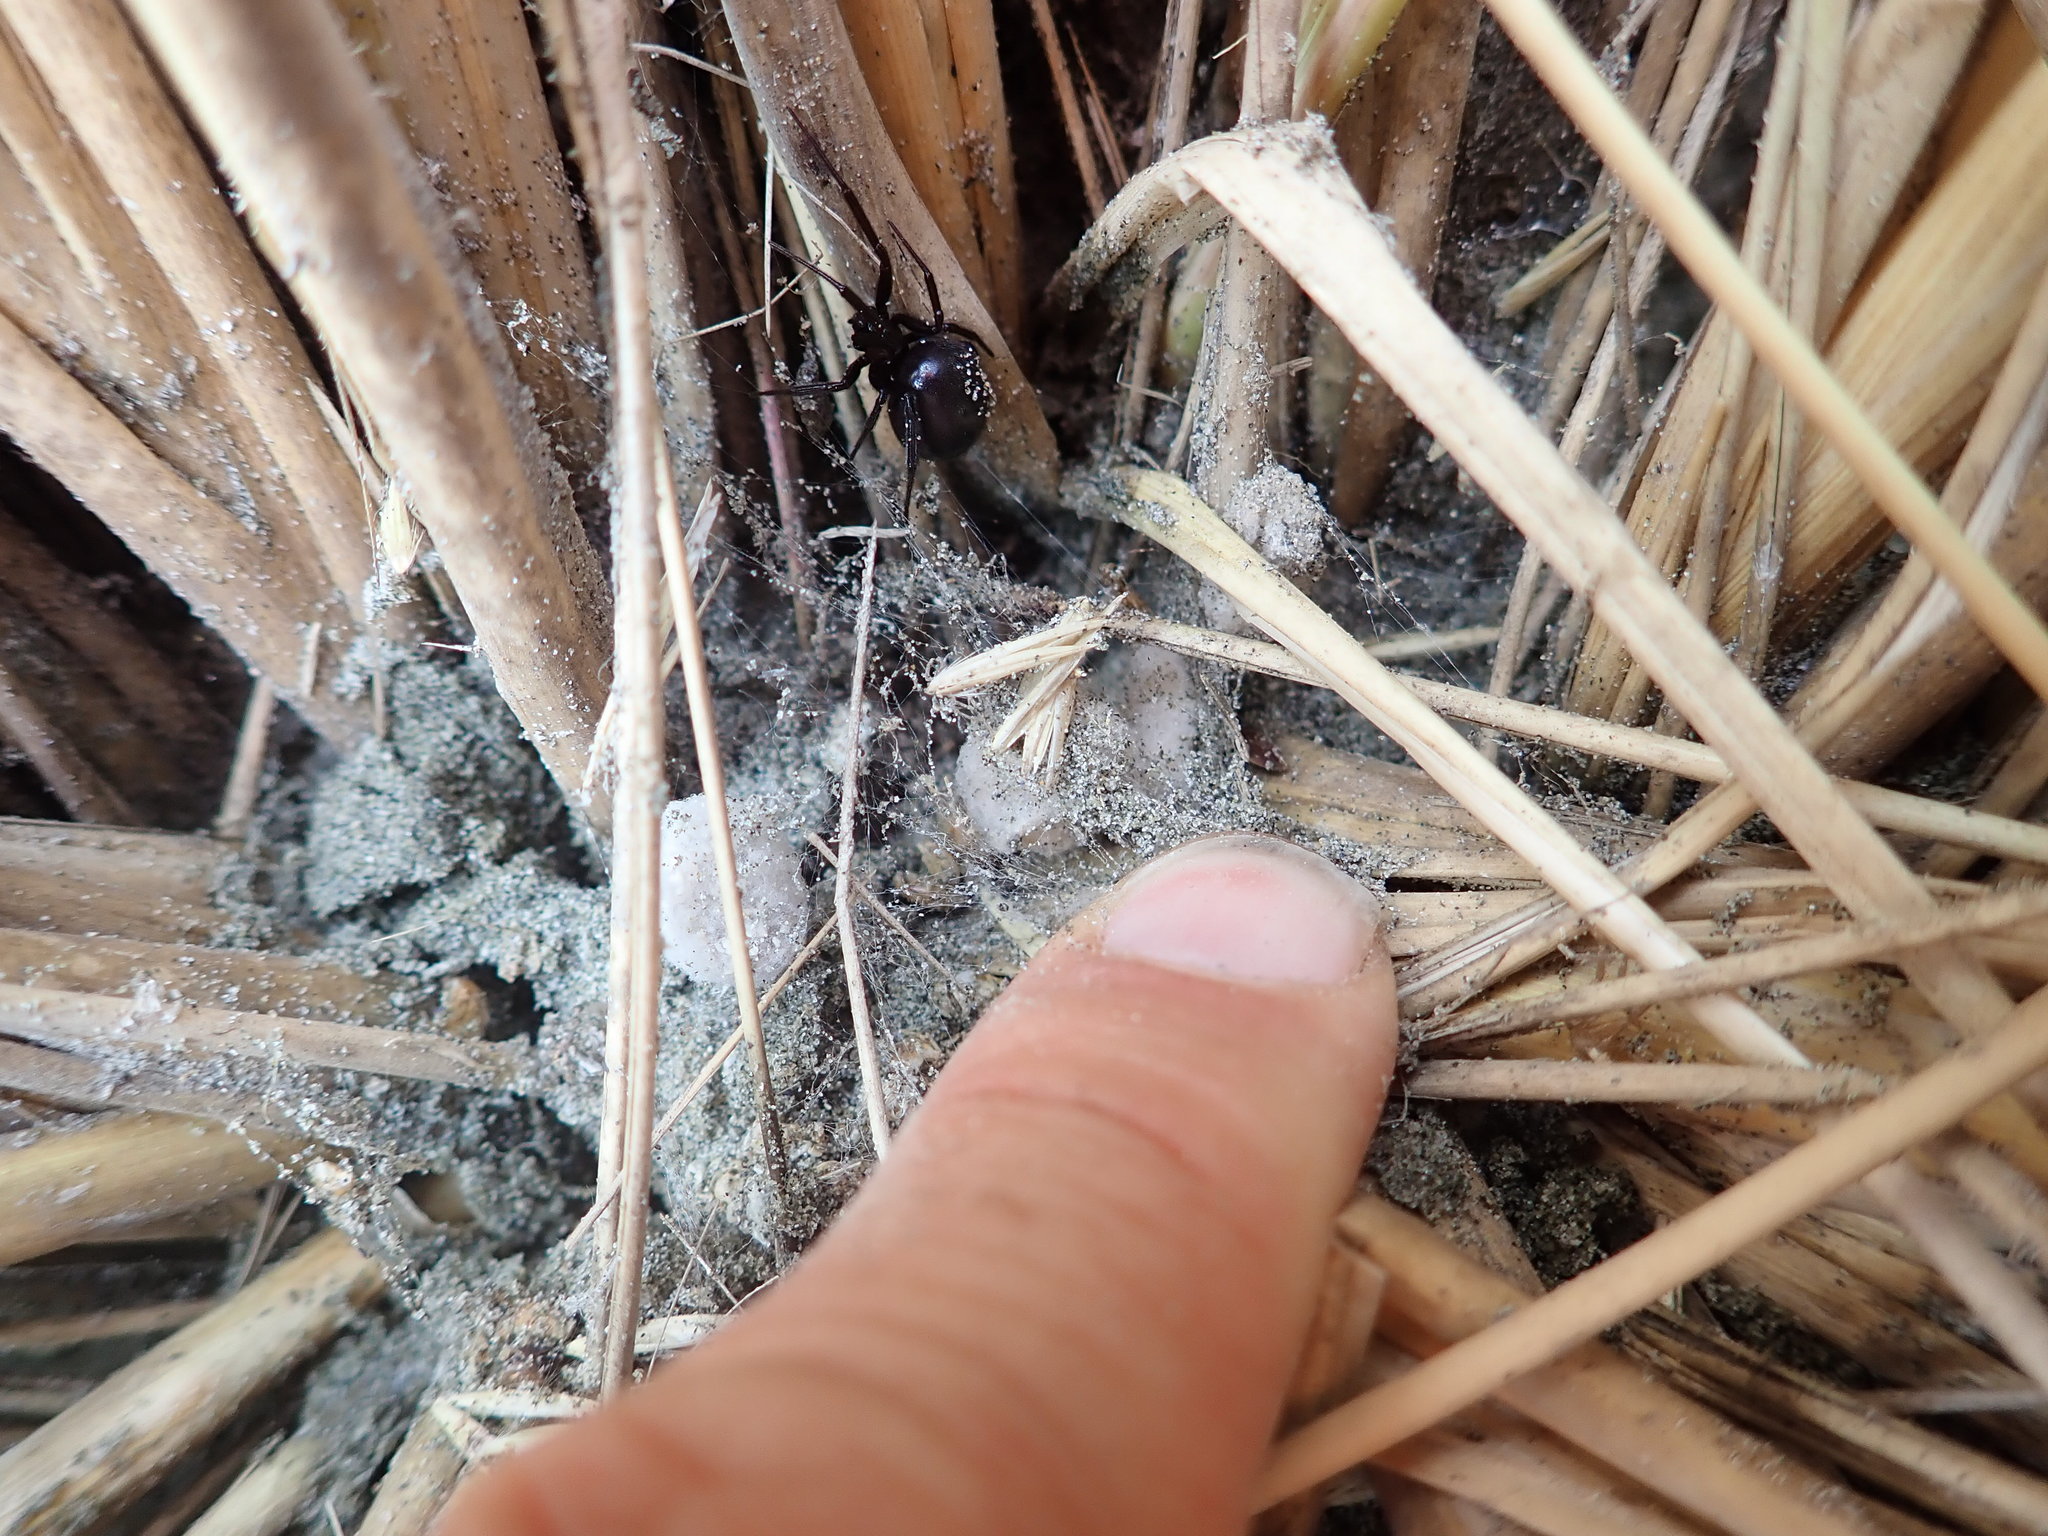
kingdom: Animalia
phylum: Arthropoda
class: Arachnida
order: Araneae
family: Theridiidae
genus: Steatoda
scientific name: Steatoda capensis
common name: Cobweb weaver
